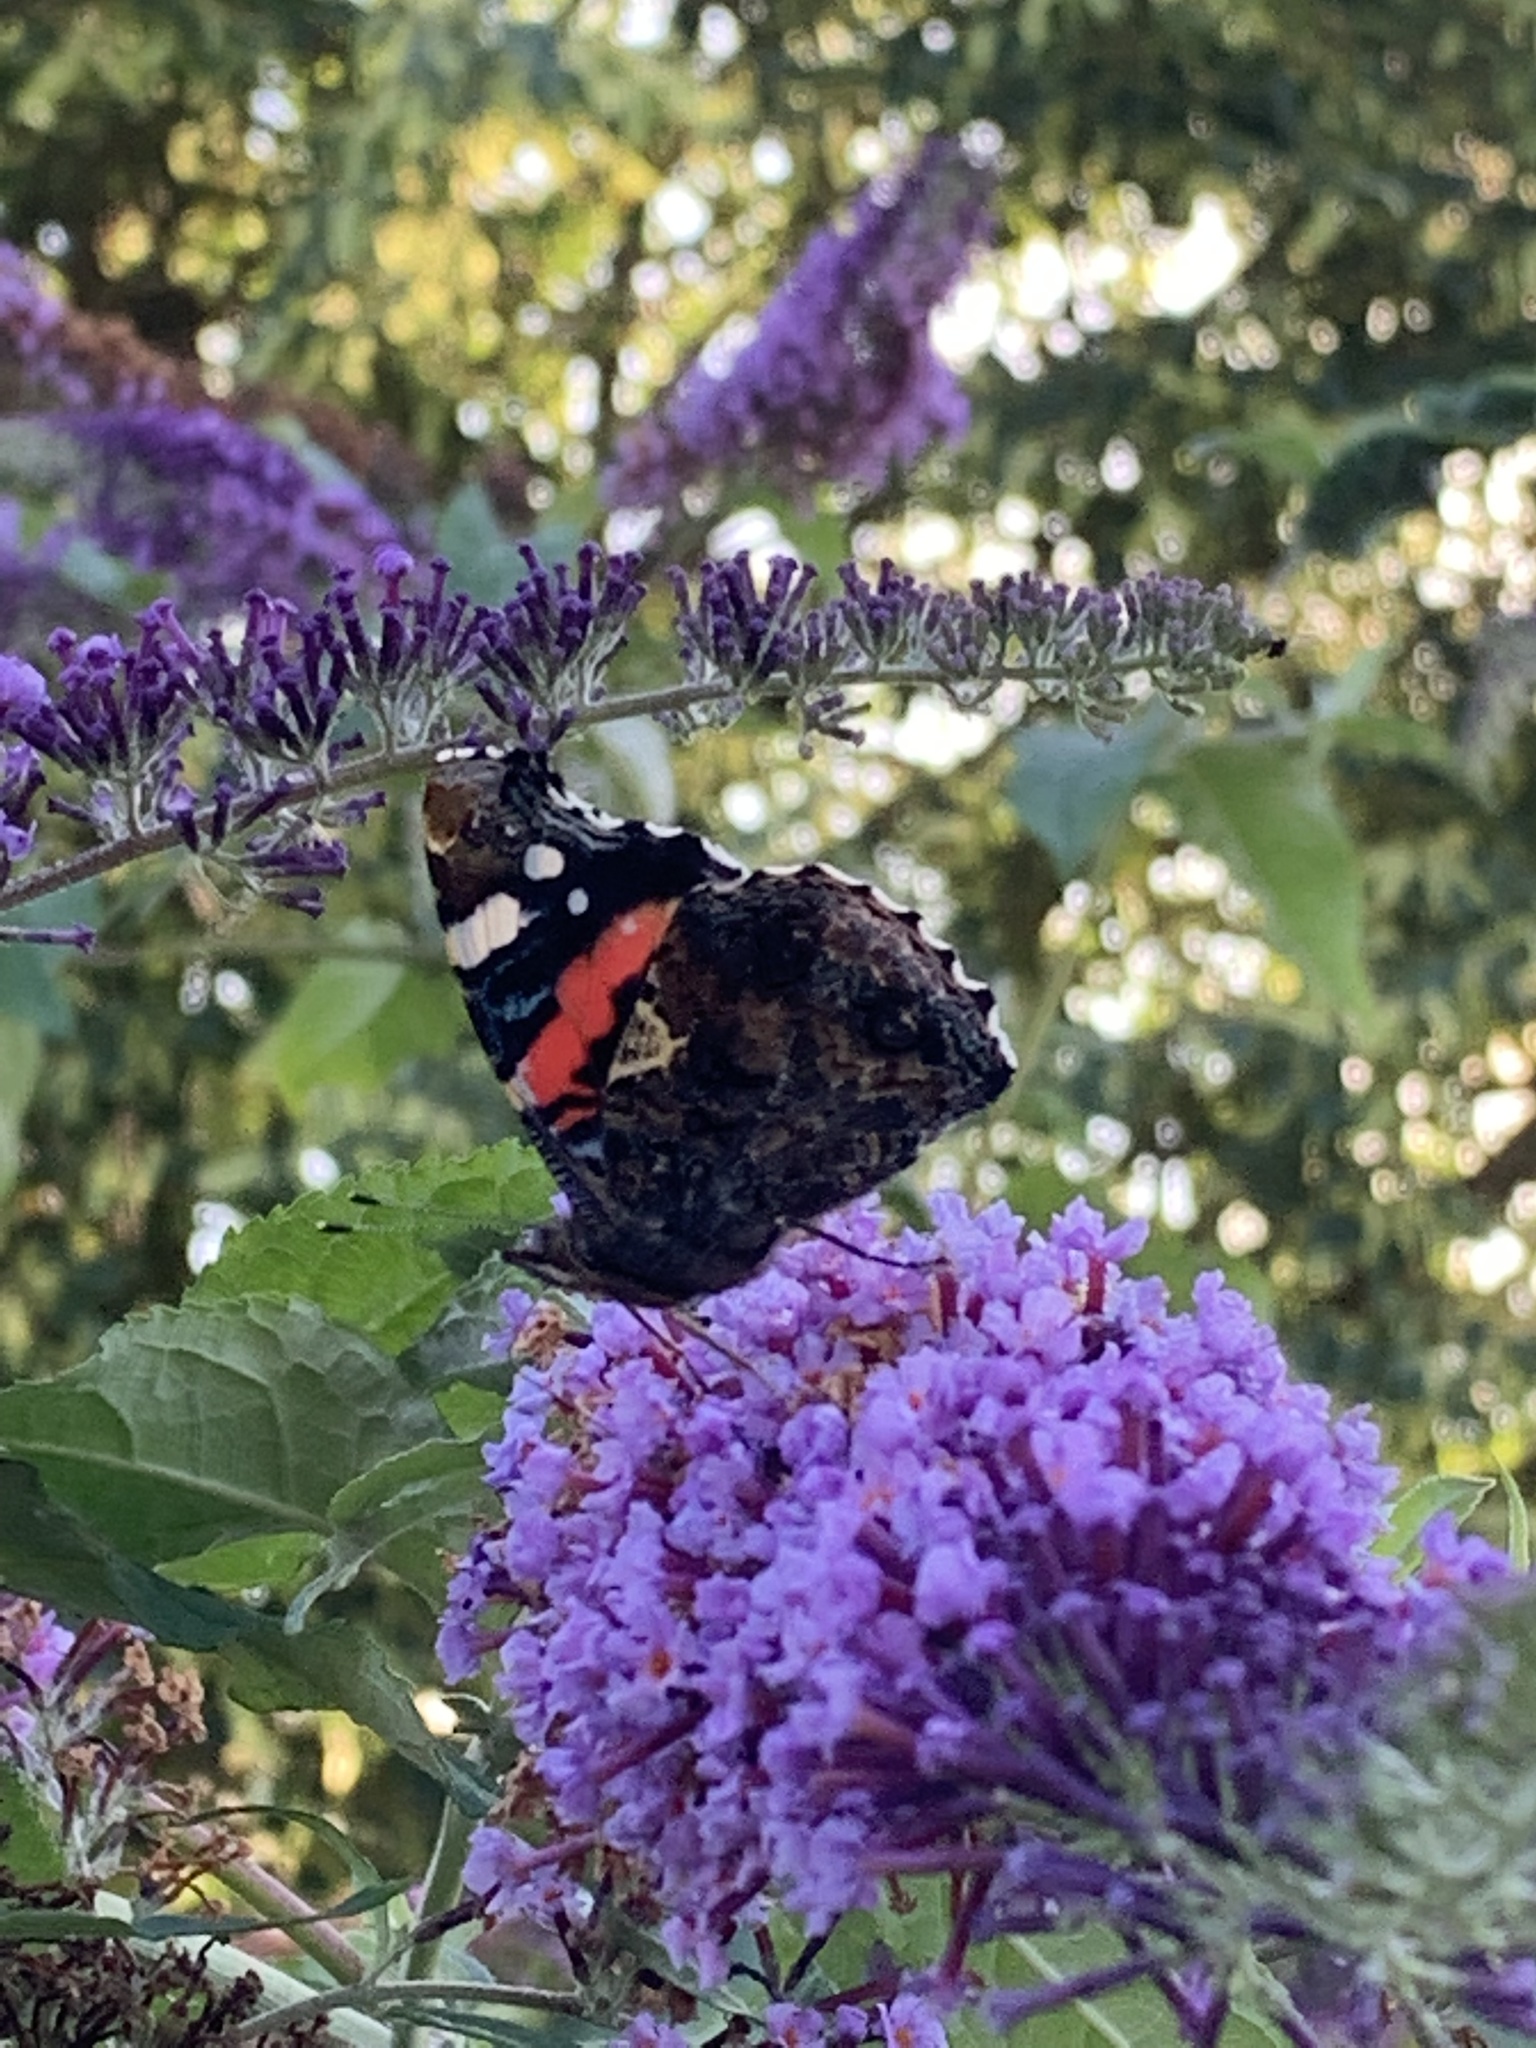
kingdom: Animalia
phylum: Arthropoda
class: Insecta
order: Lepidoptera
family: Nymphalidae
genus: Vanessa
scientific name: Vanessa atalanta
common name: Red admiral
